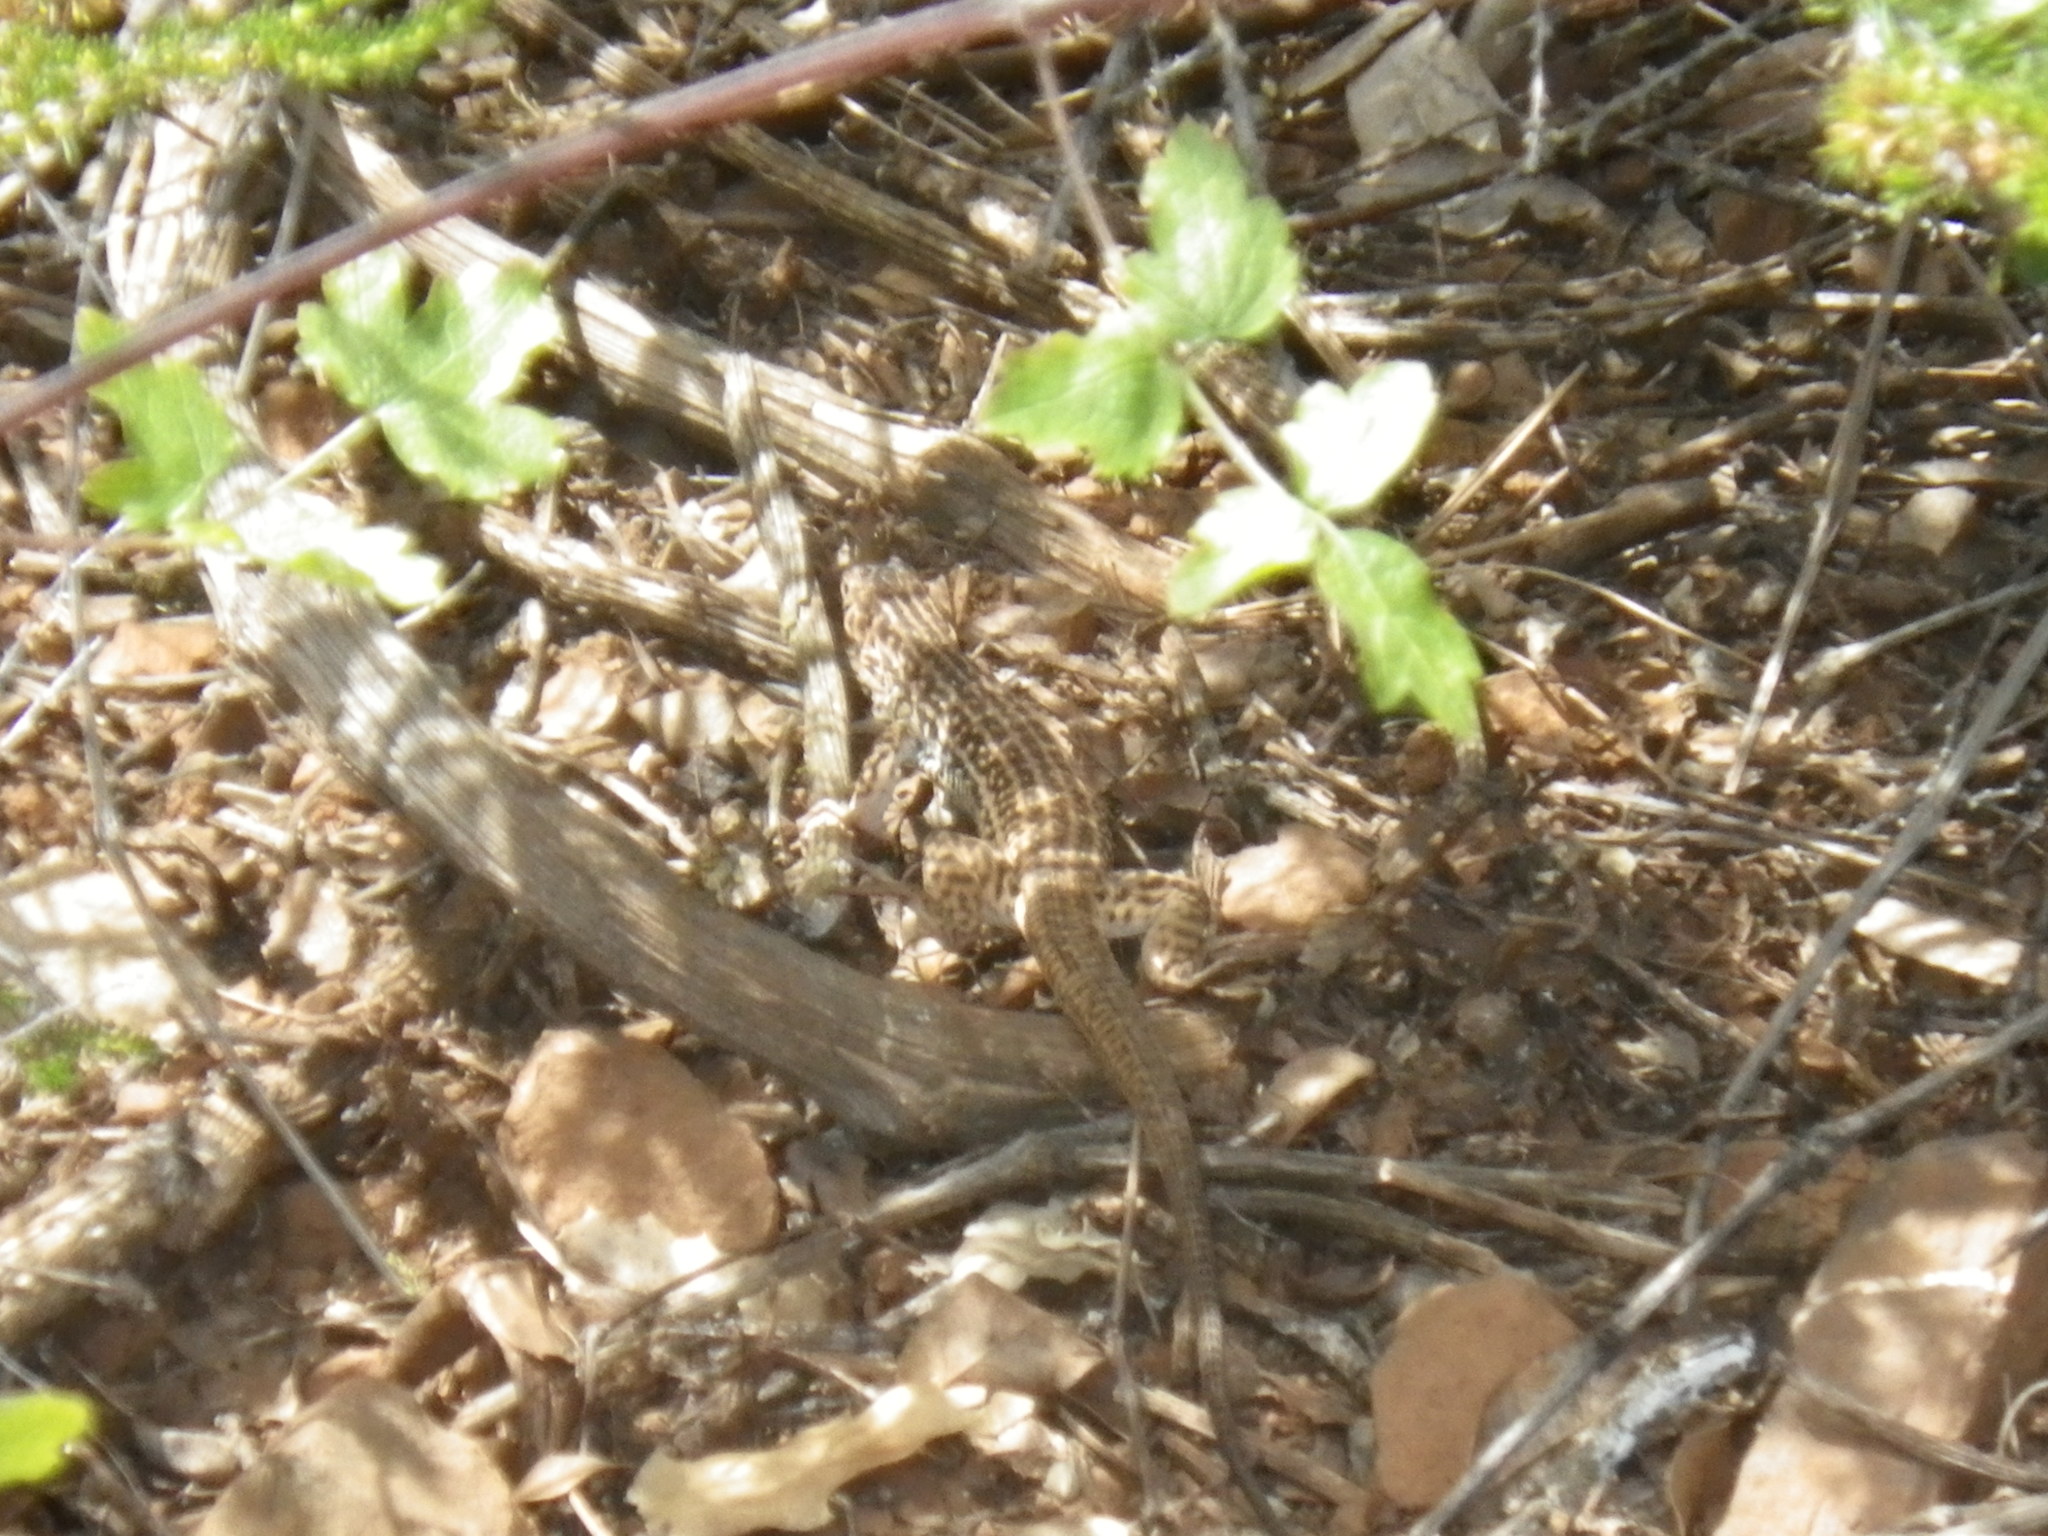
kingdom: Animalia
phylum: Chordata
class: Squamata
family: Teiidae
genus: Aspidoscelis
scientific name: Aspidoscelis tigris
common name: Tiger whiptail
